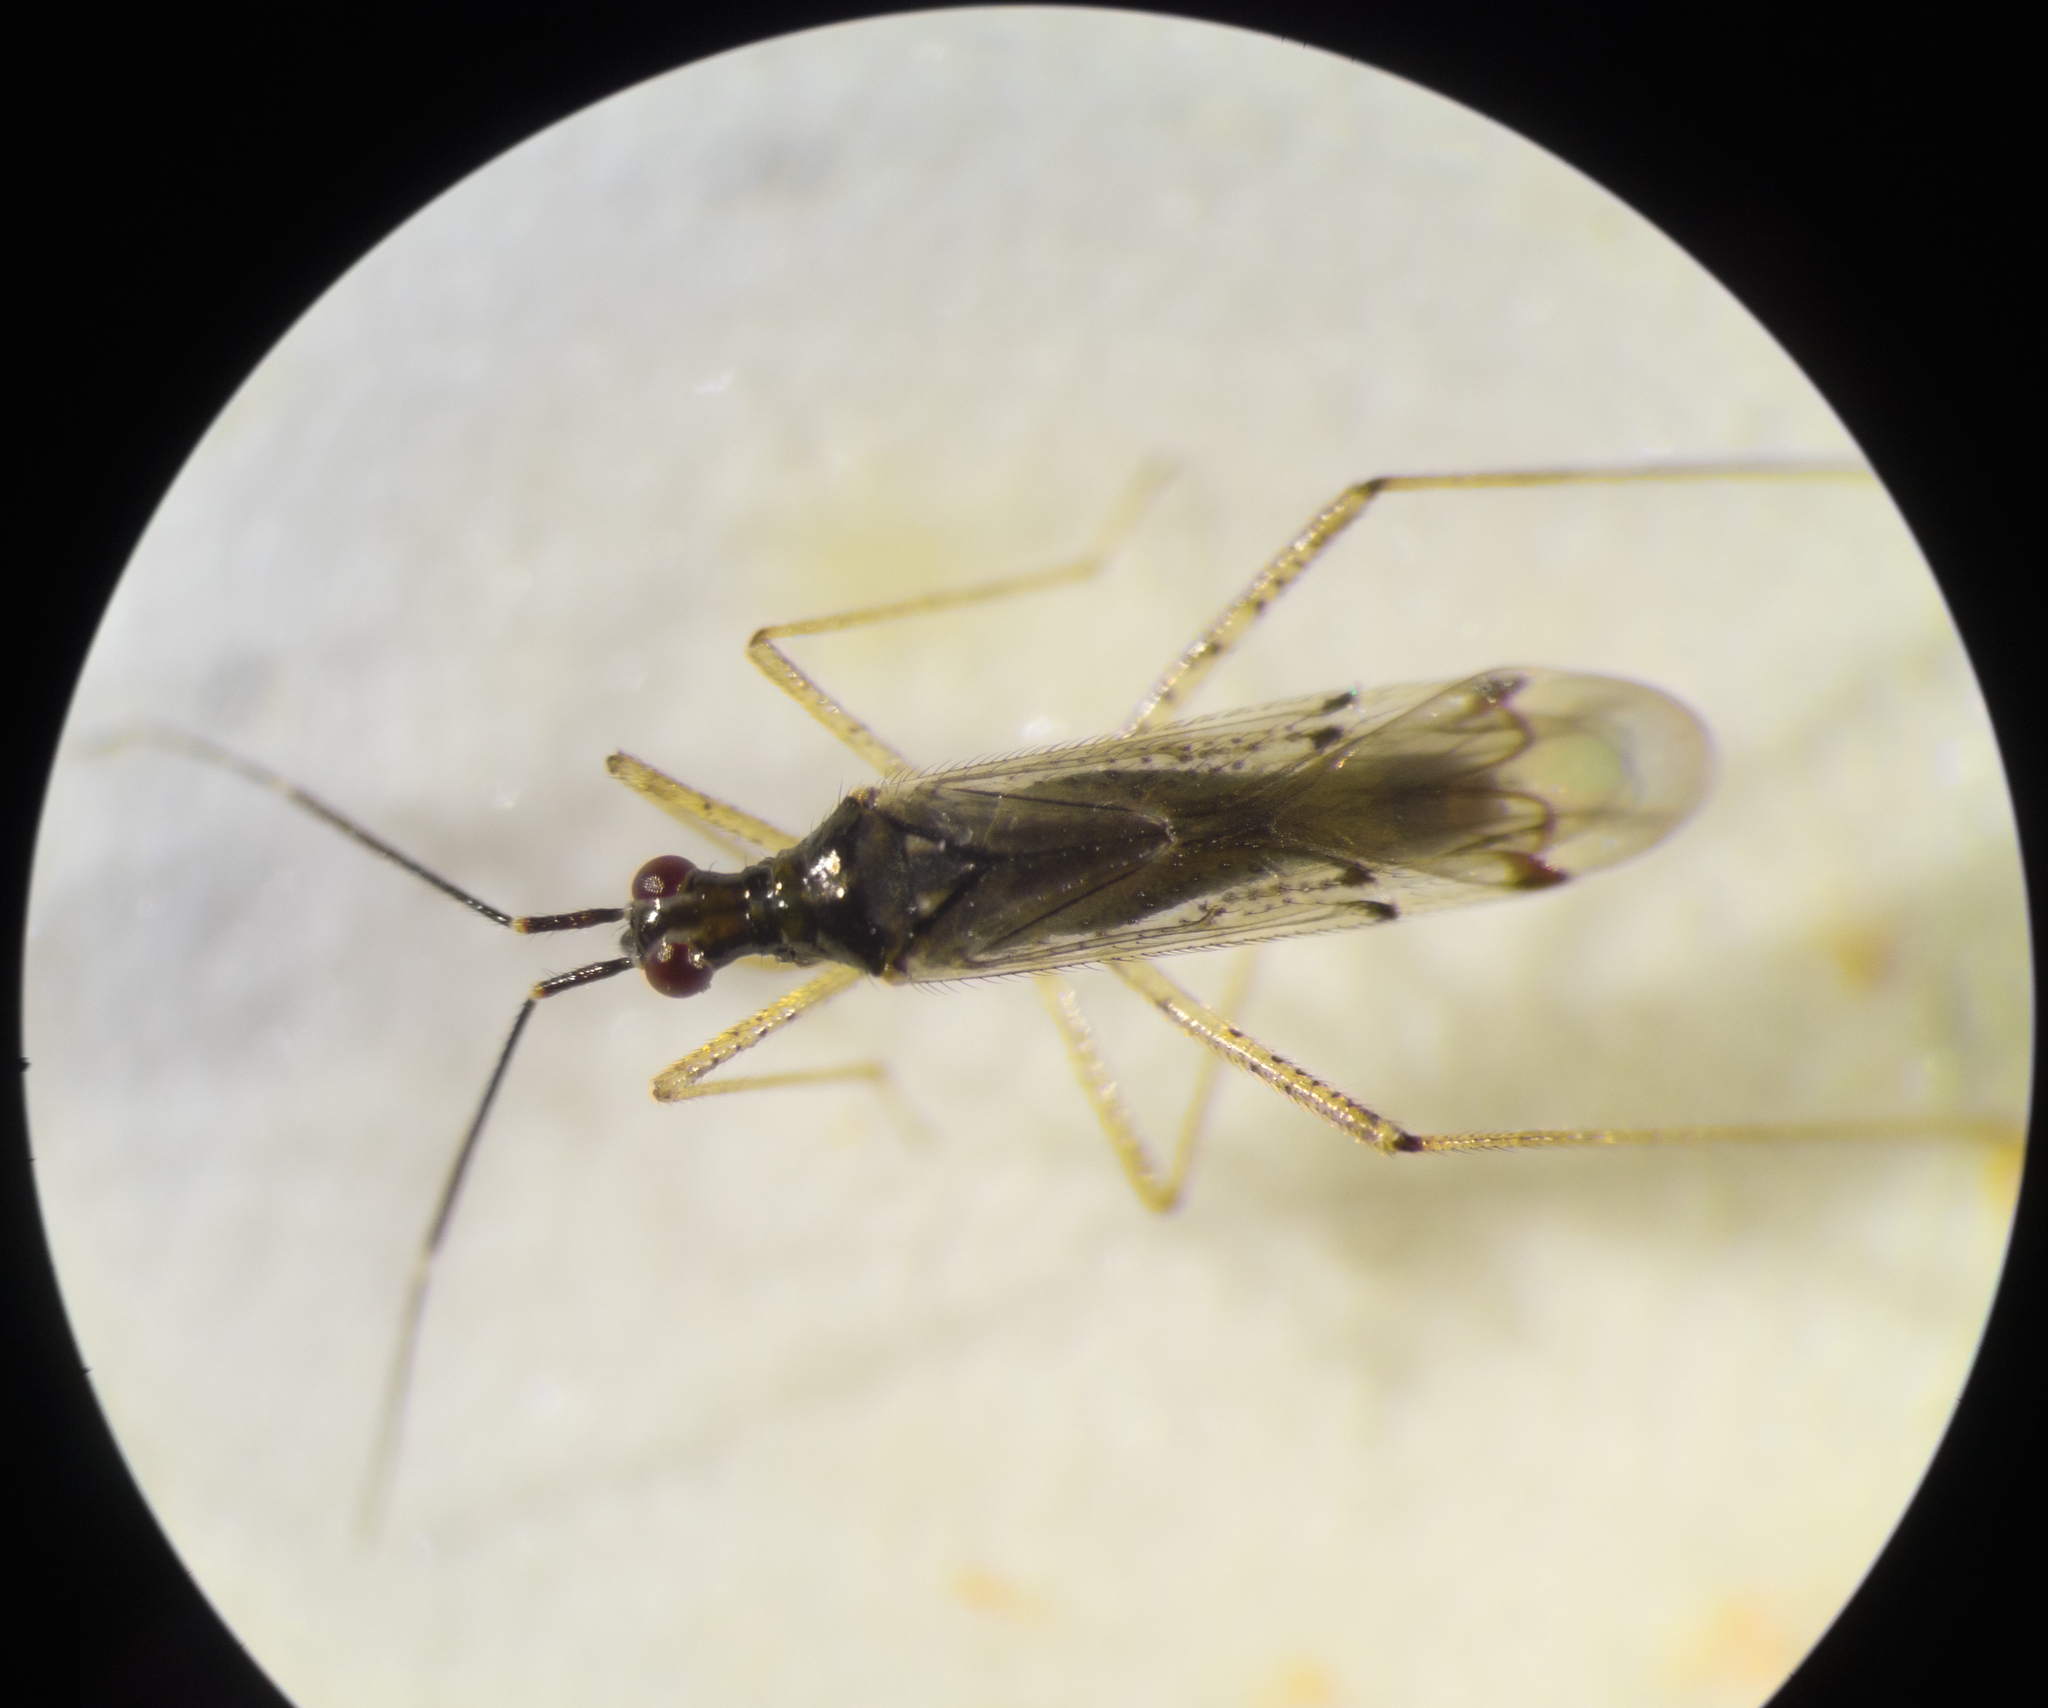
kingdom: Animalia
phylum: Arthropoda
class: Insecta
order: Hemiptera
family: Miridae
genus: Dicyphus
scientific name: Dicyphus errans
